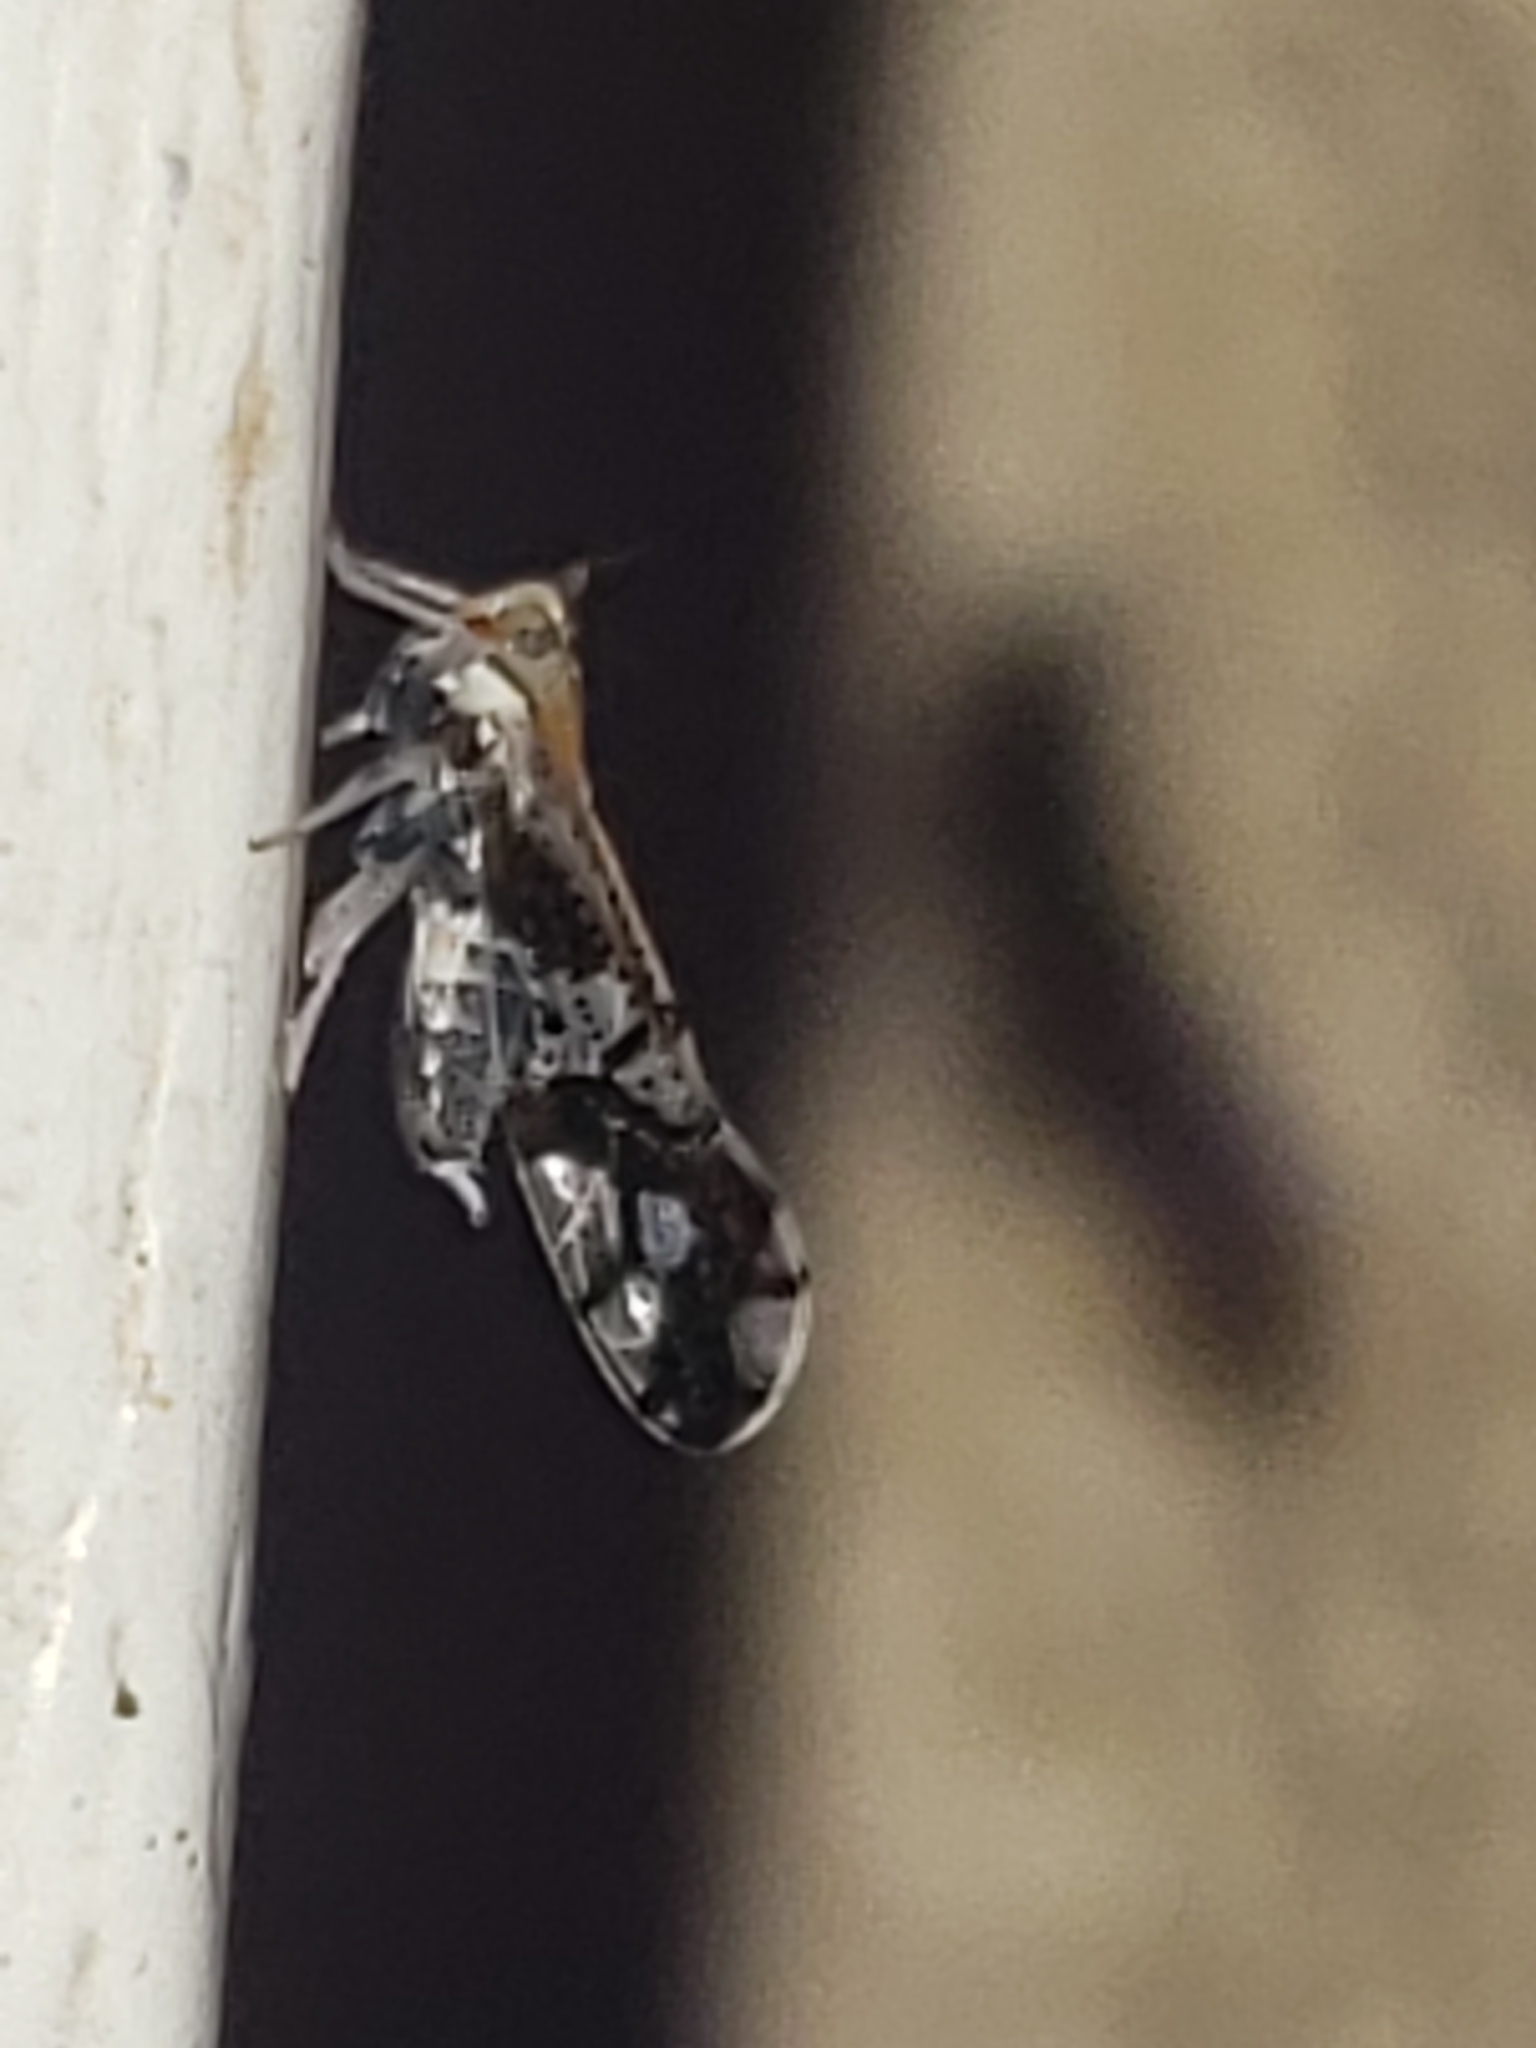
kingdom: Animalia
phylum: Arthropoda
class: Insecta
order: Hemiptera
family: Delphacidae
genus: Liburniella
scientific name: Liburniella ornata
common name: Ornate planthopper
